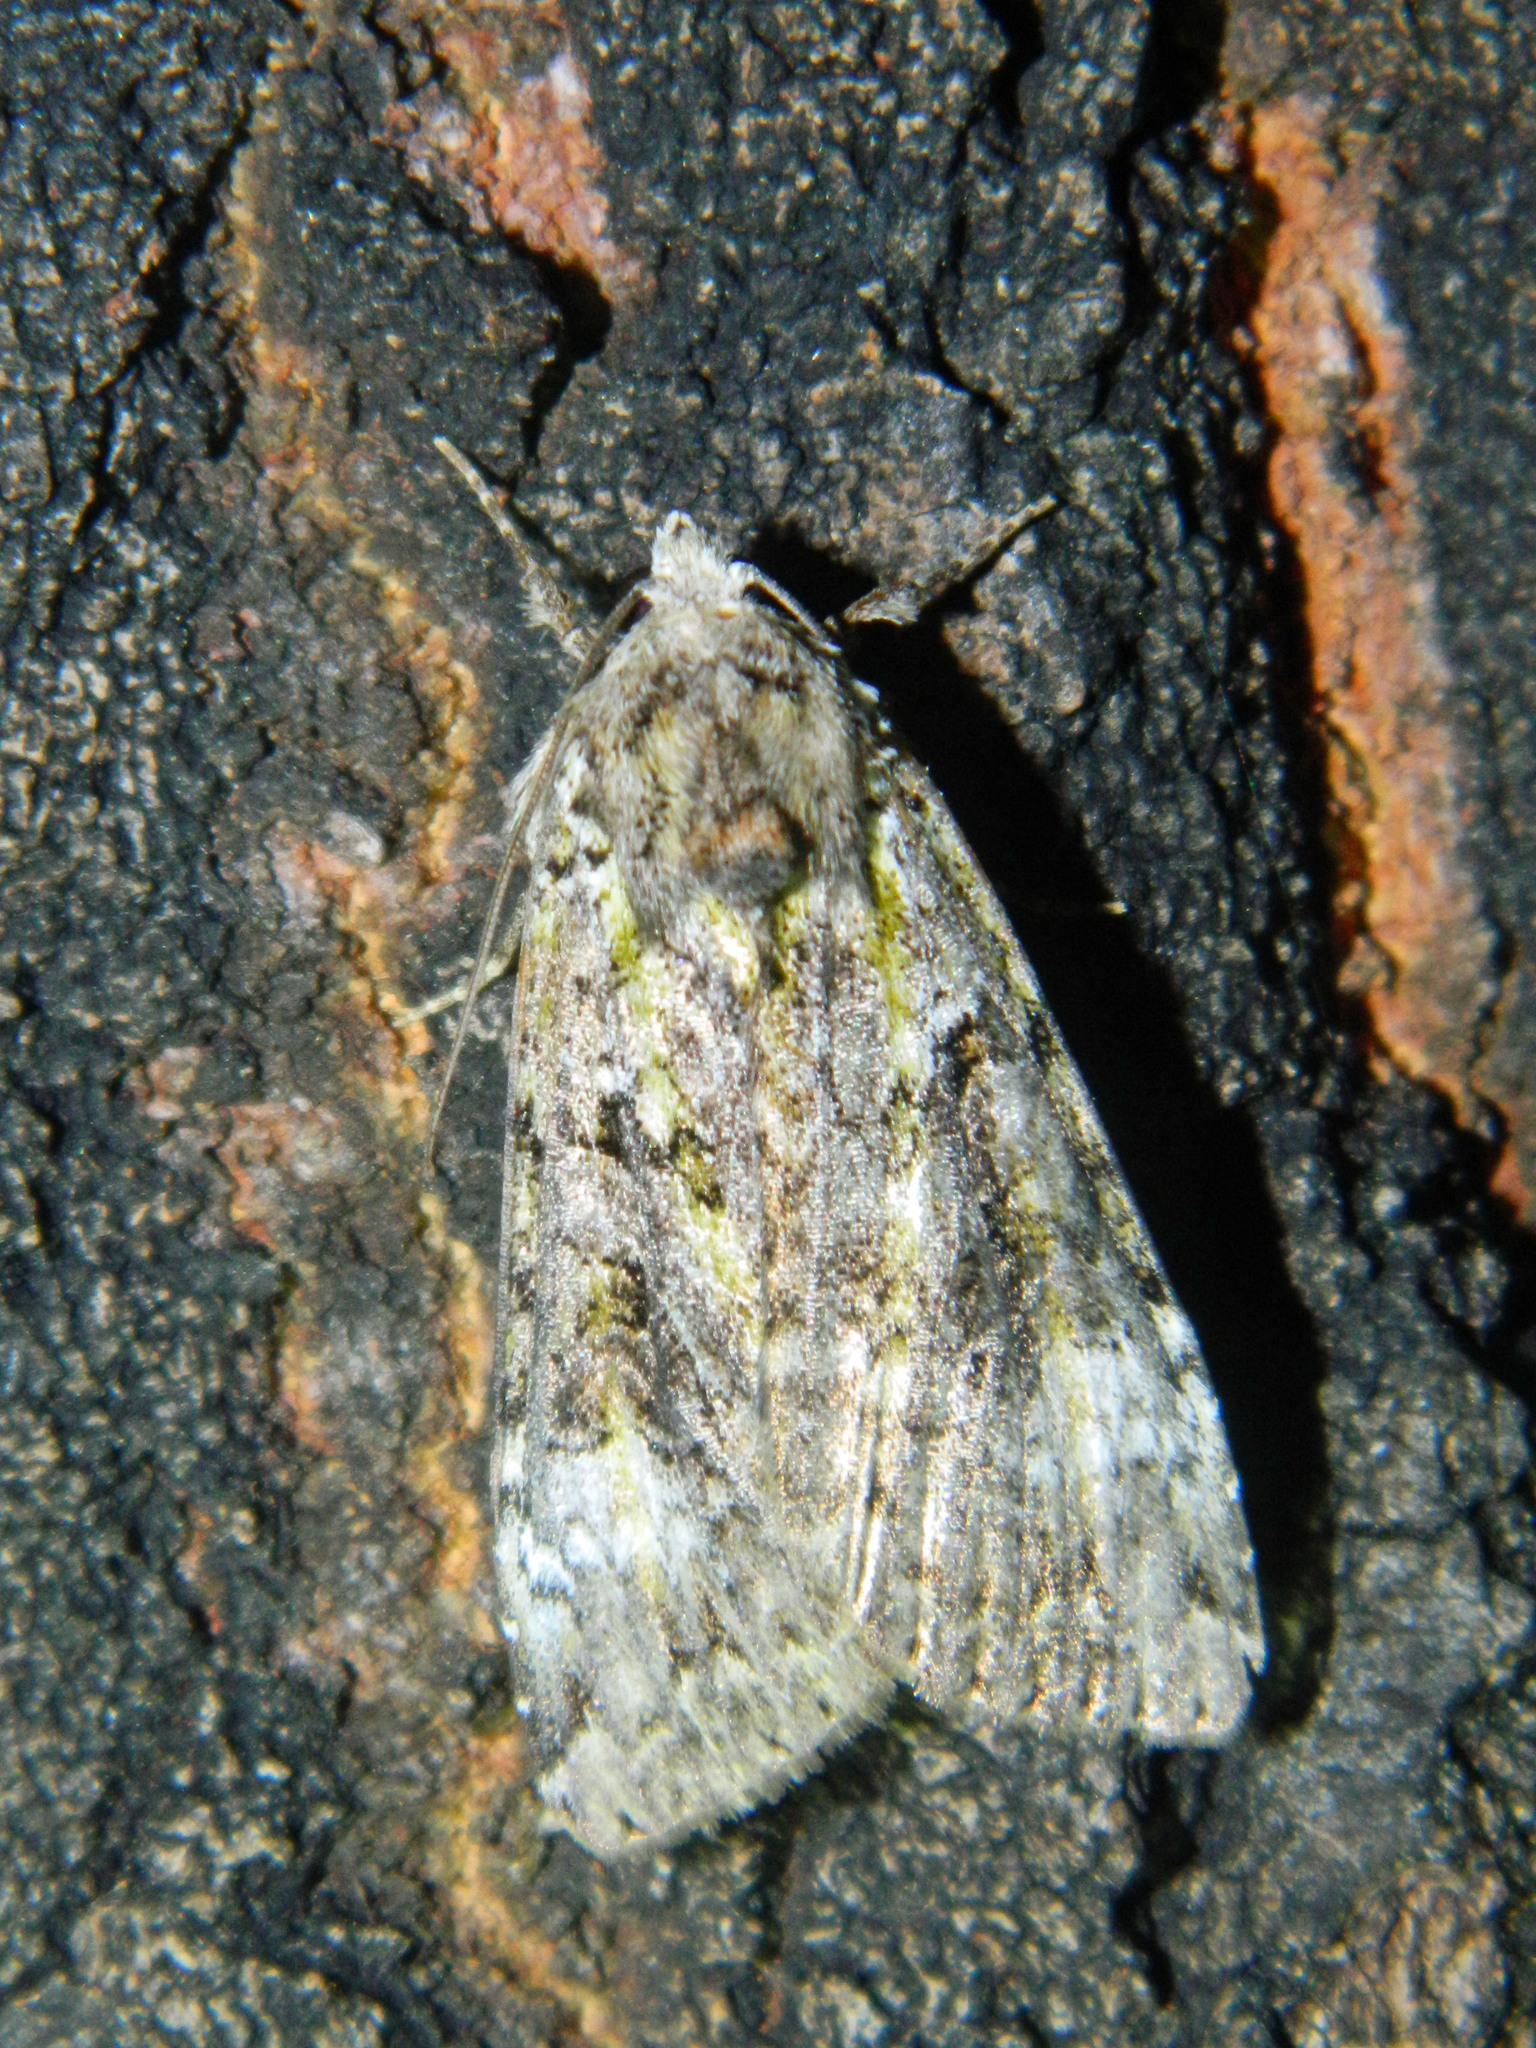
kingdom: Animalia
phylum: Arthropoda
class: Insecta
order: Lepidoptera
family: Noctuidae
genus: Anaplectoides
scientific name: Anaplectoides prasina
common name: Green arches
